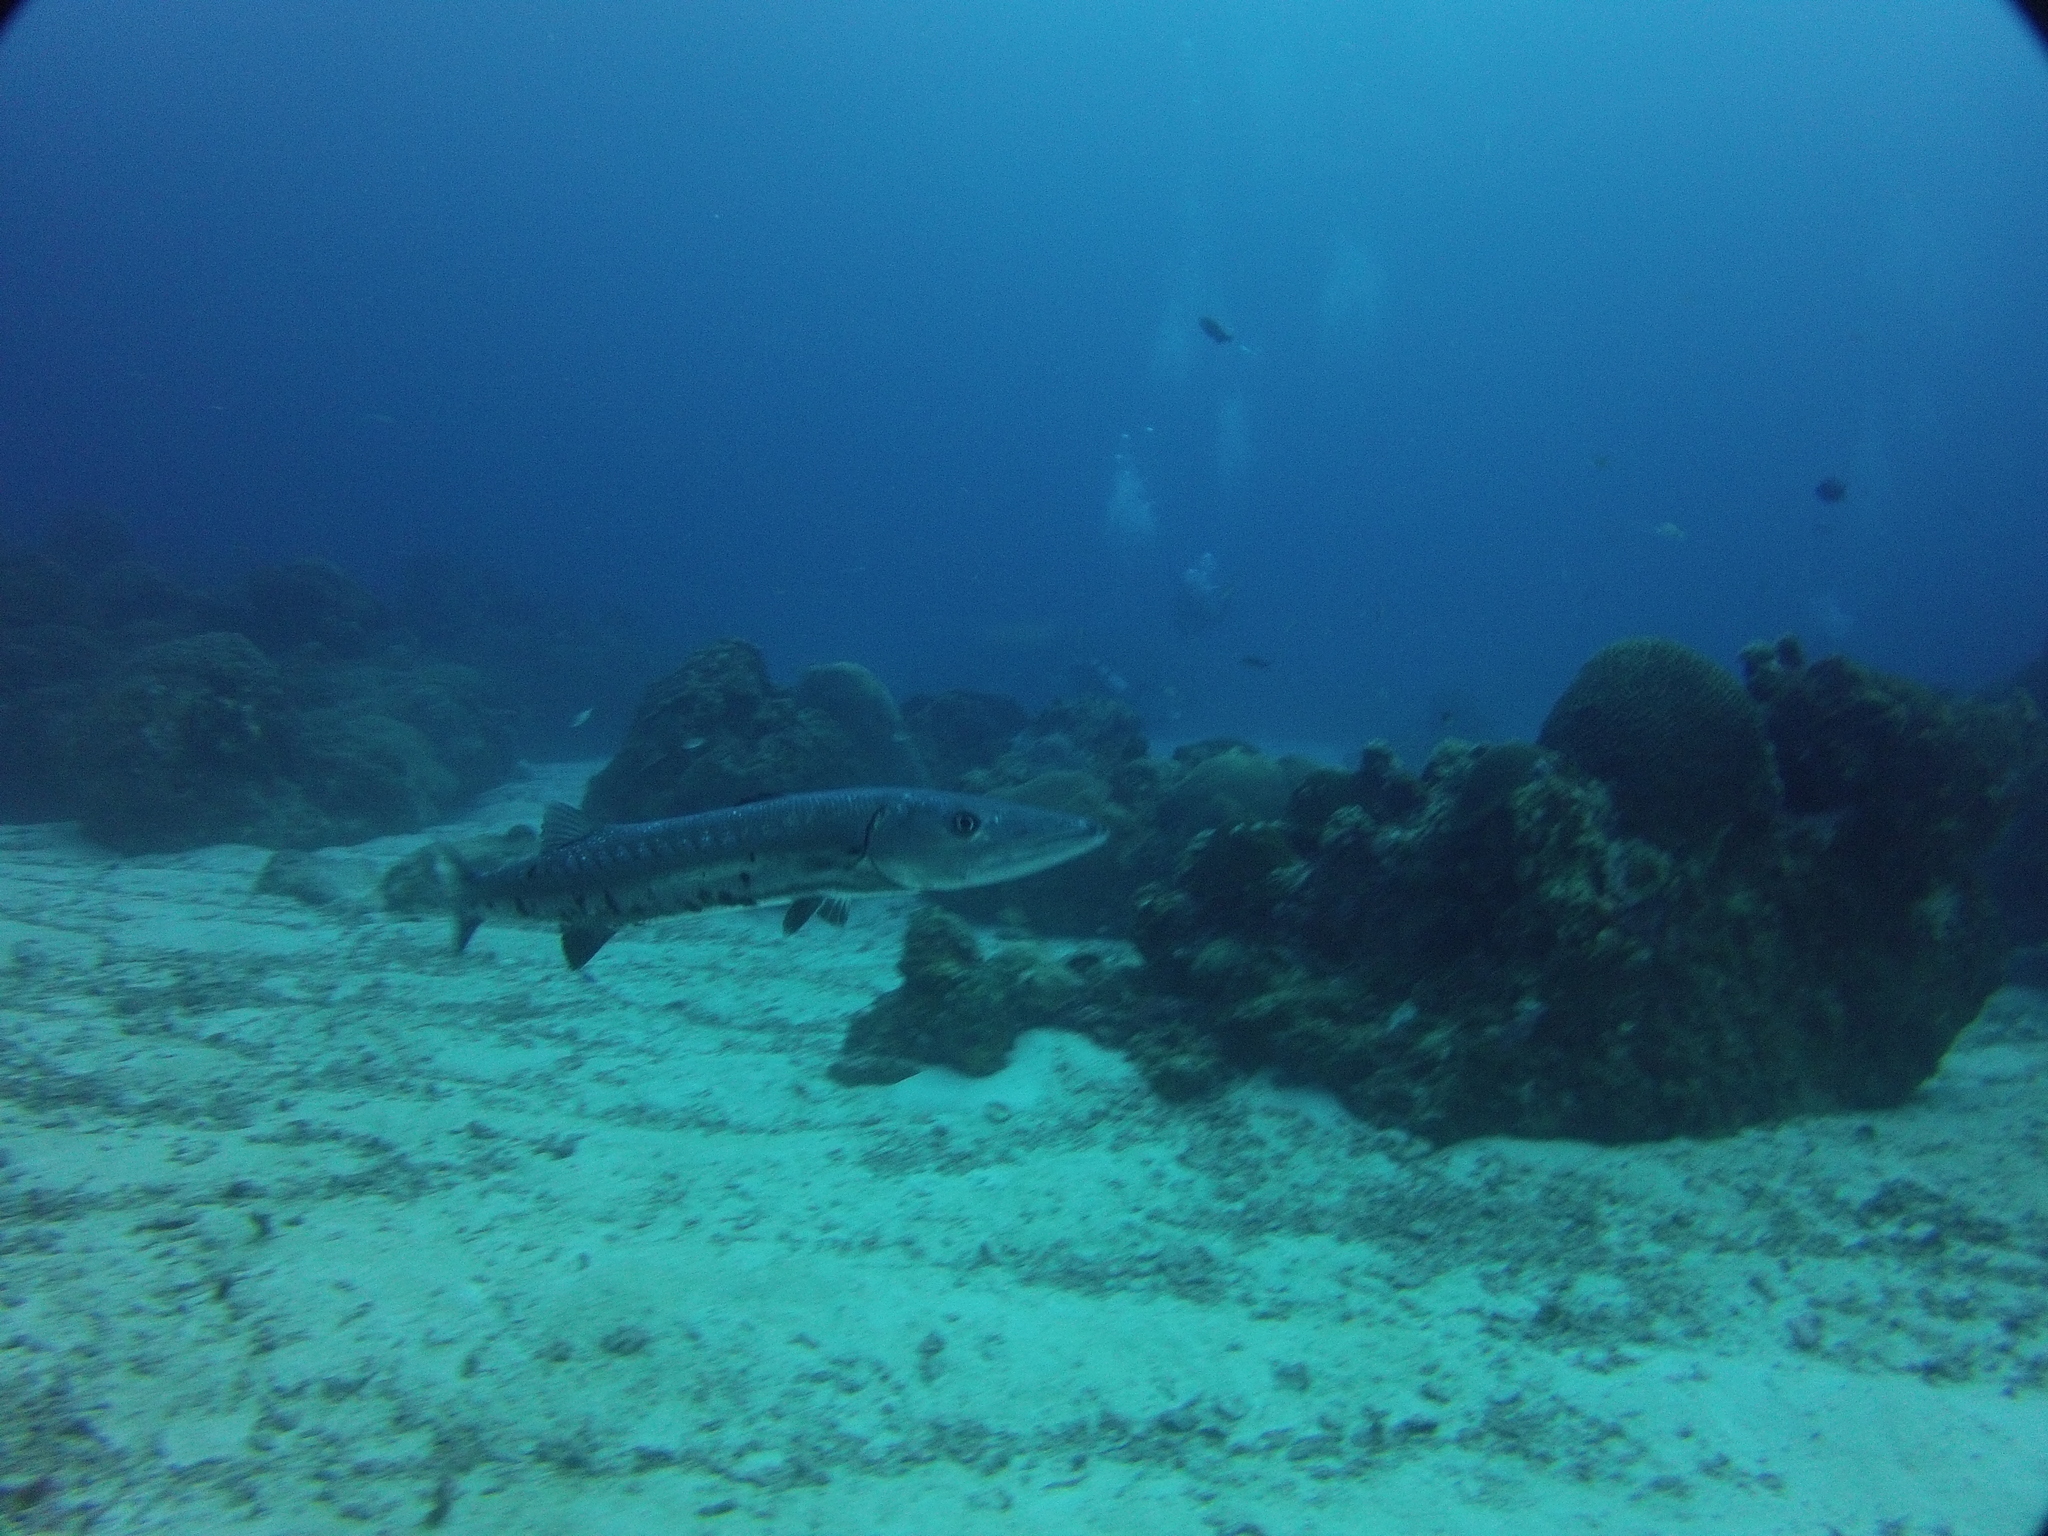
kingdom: Animalia
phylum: Chordata
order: Perciformes
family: Sphyraenidae
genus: Sphyraena
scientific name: Sphyraena barracuda
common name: Great barracuda
